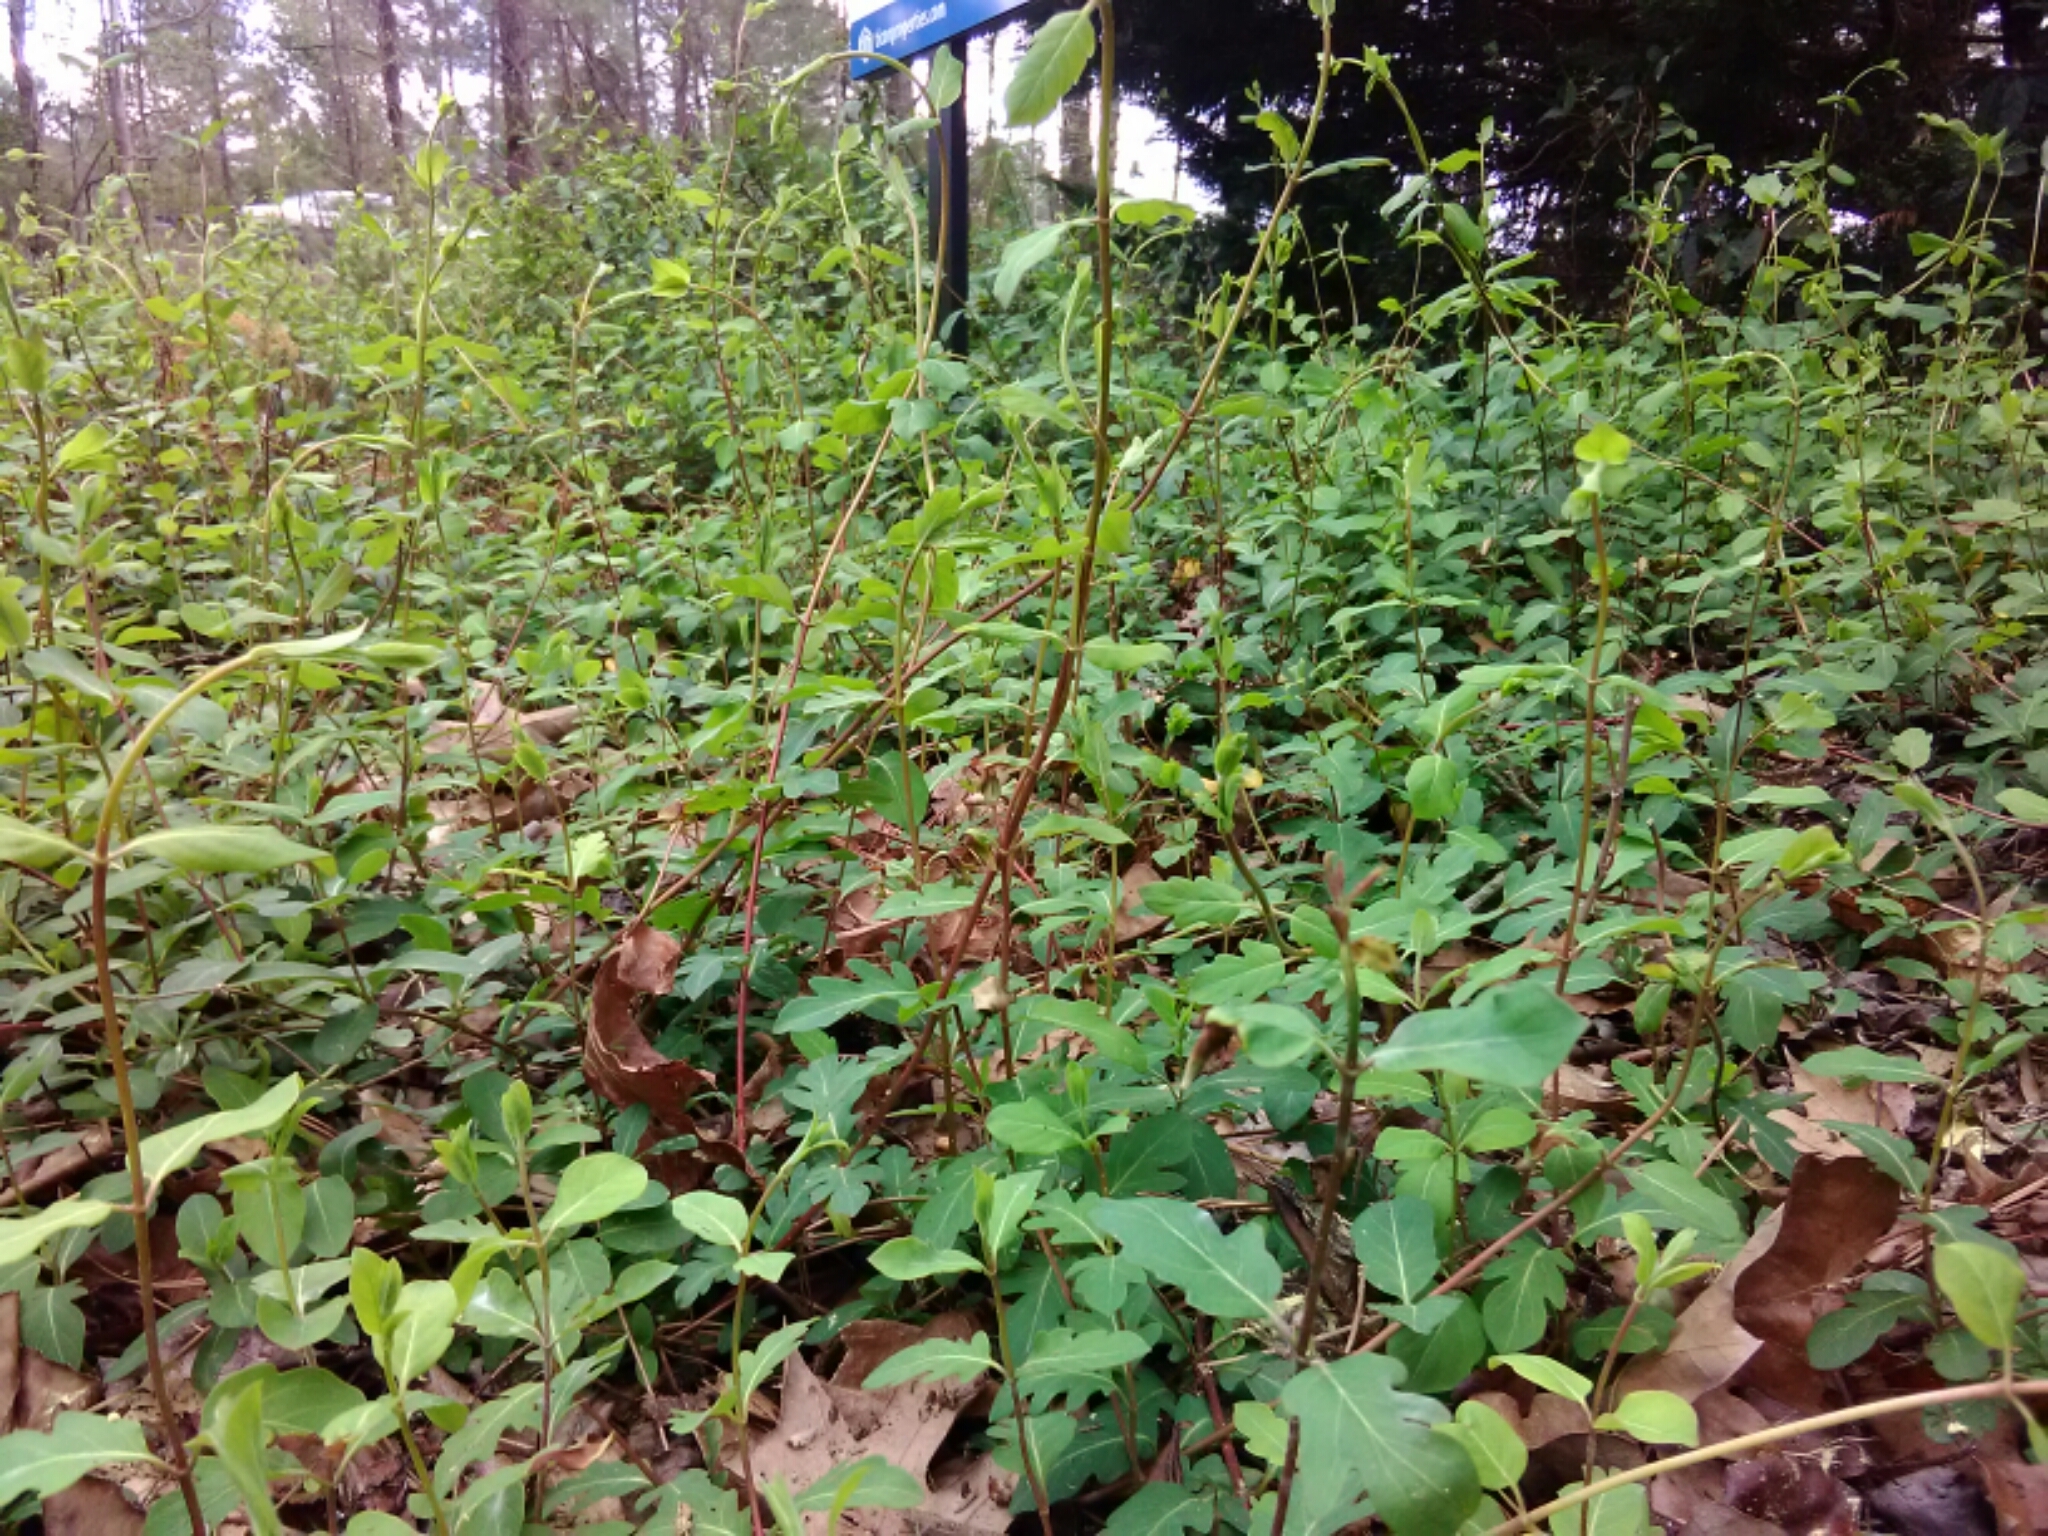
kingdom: Plantae
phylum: Tracheophyta
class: Magnoliopsida
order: Dipsacales
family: Caprifoliaceae
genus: Lonicera
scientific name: Lonicera japonica
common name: Japanese honeysuckle
